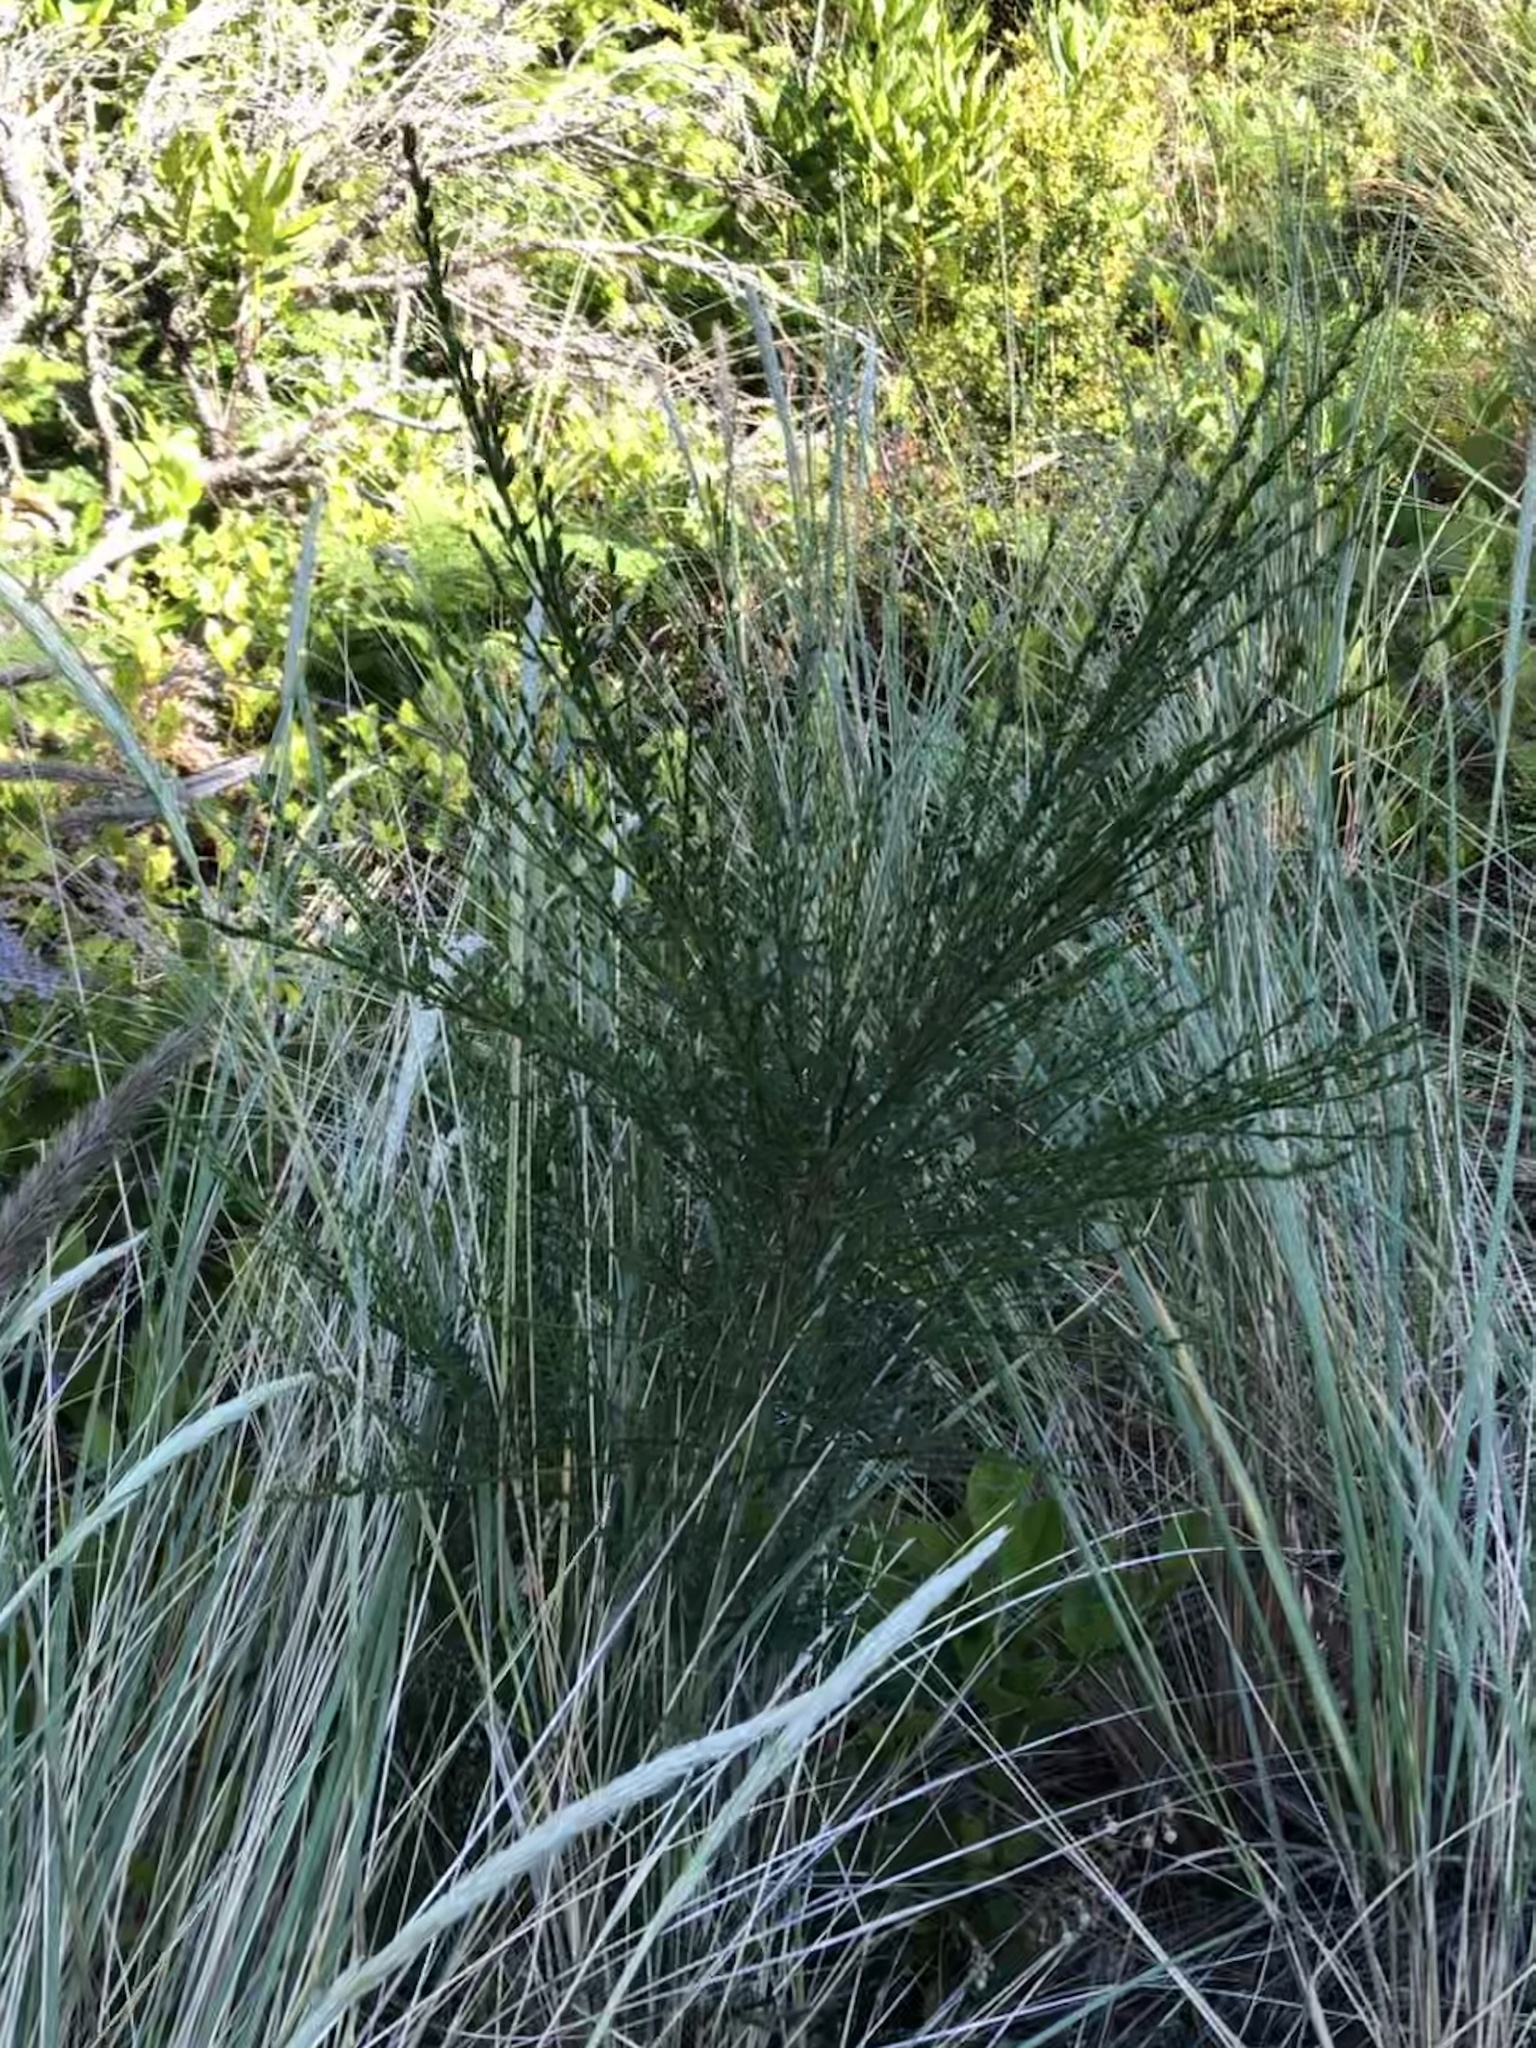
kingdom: Plantae
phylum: Tracheophyta
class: Magnoliopsida
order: Fabales
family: Fabaceae
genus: Cytisus
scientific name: Cytisus scoparius
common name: Scotch broom
